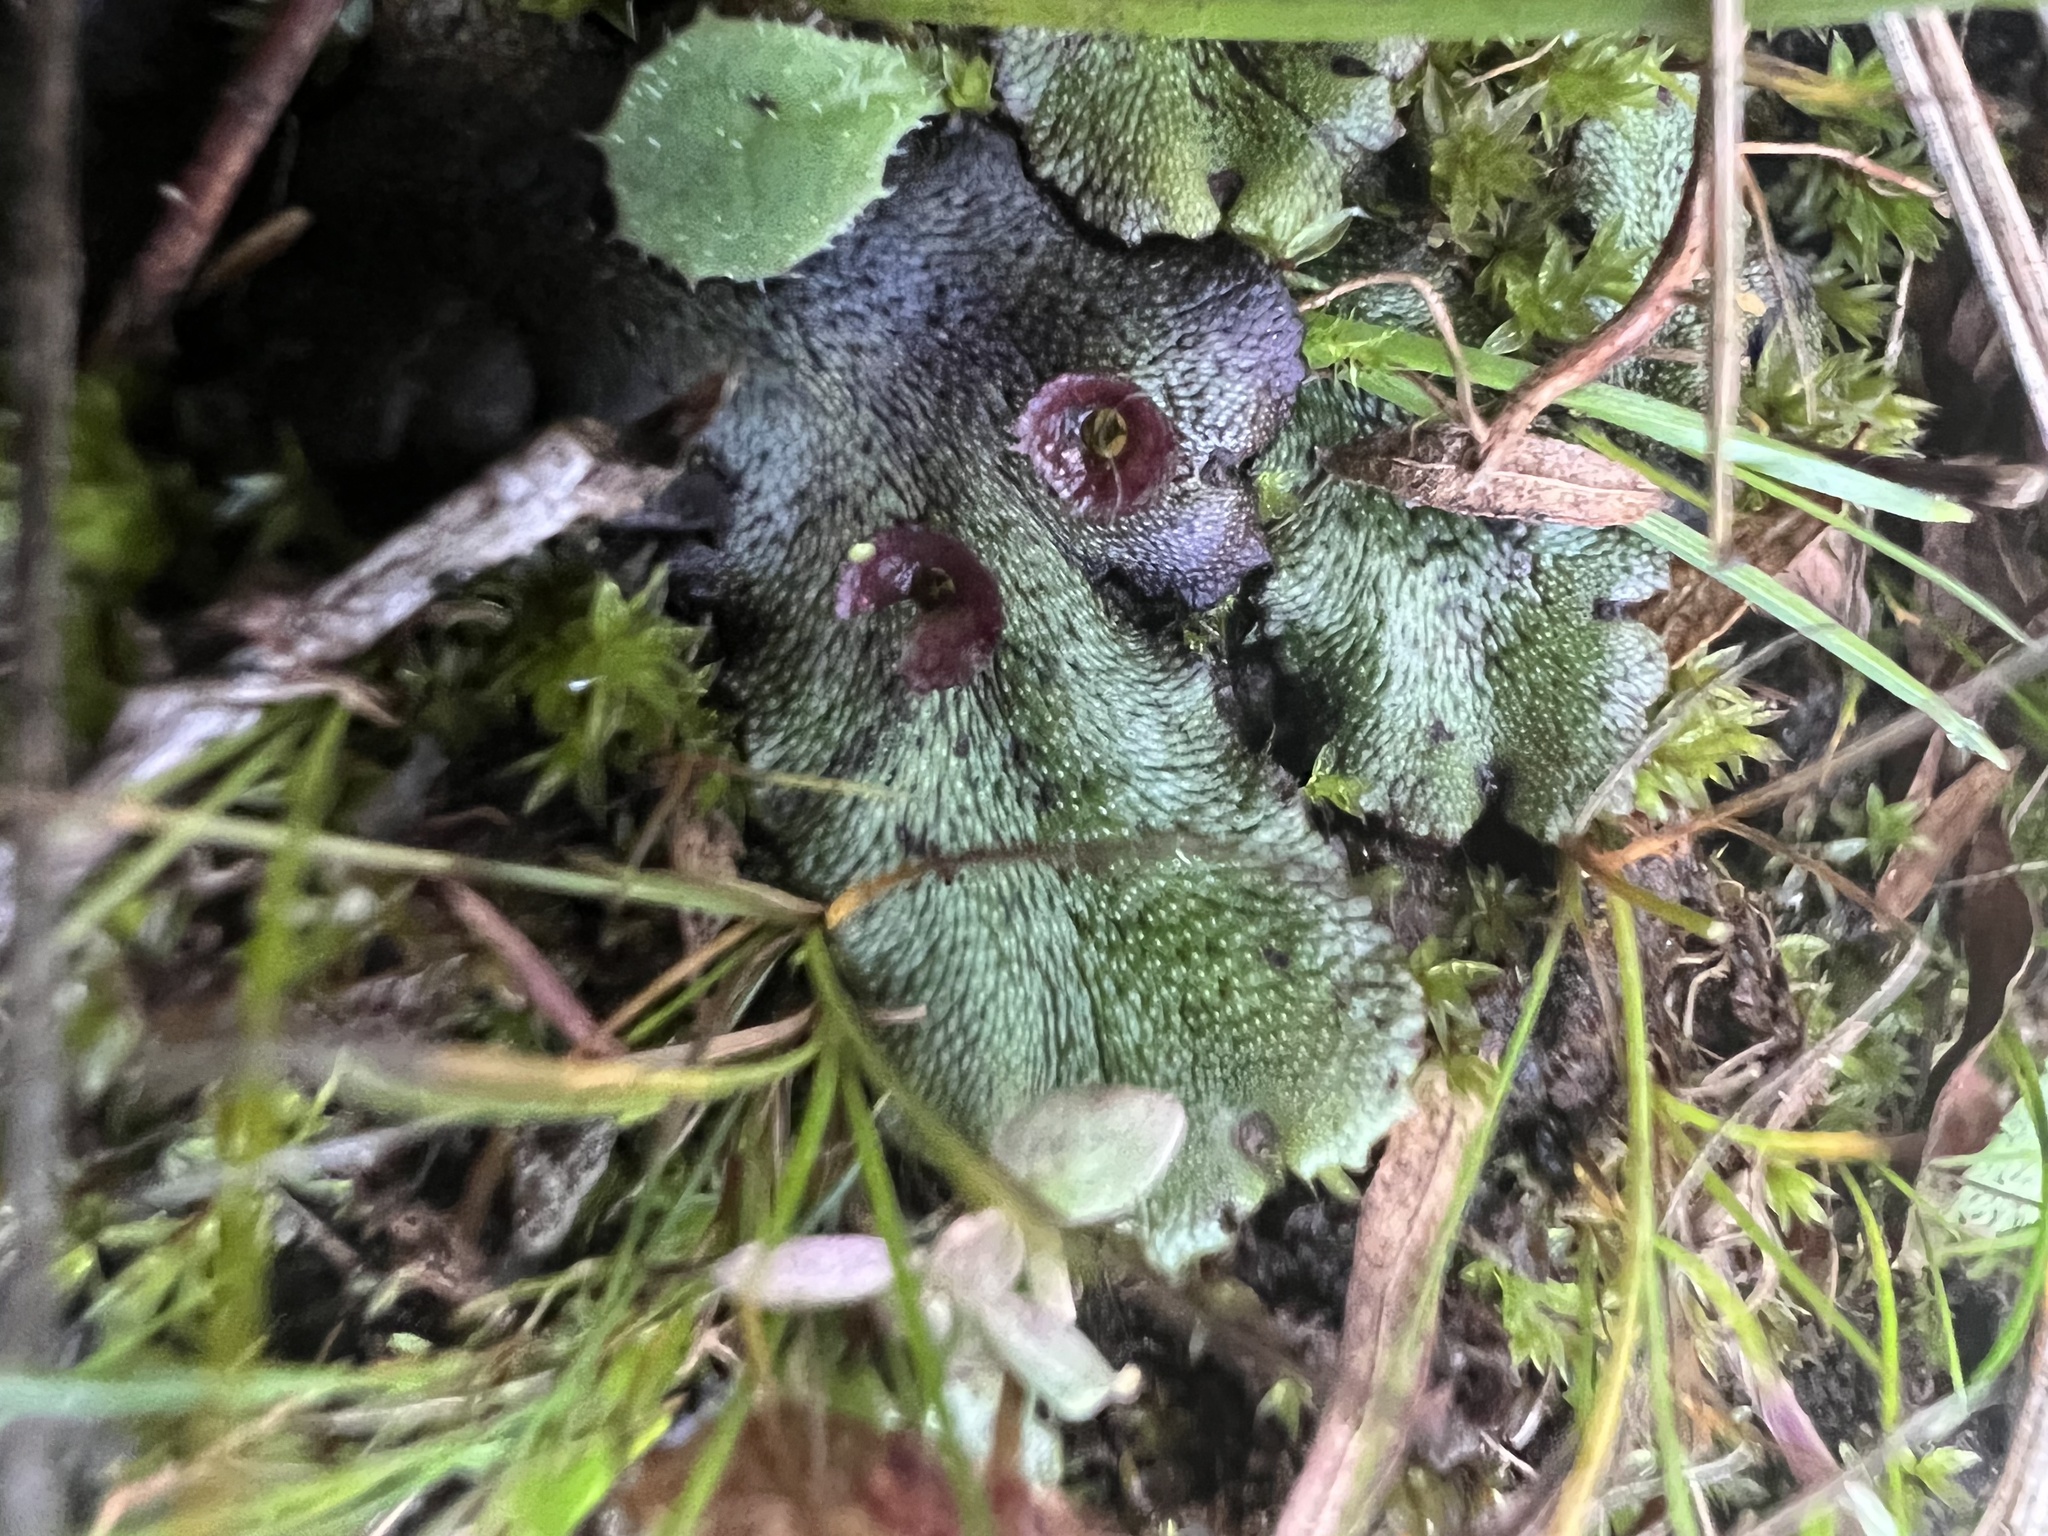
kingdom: Plantae
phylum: Marchantiophyta
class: Marchantiopsida
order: Marchantiales
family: Marchantiaceae
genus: Marchantia
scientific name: Marchantia polymorpha
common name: Common liverwort
